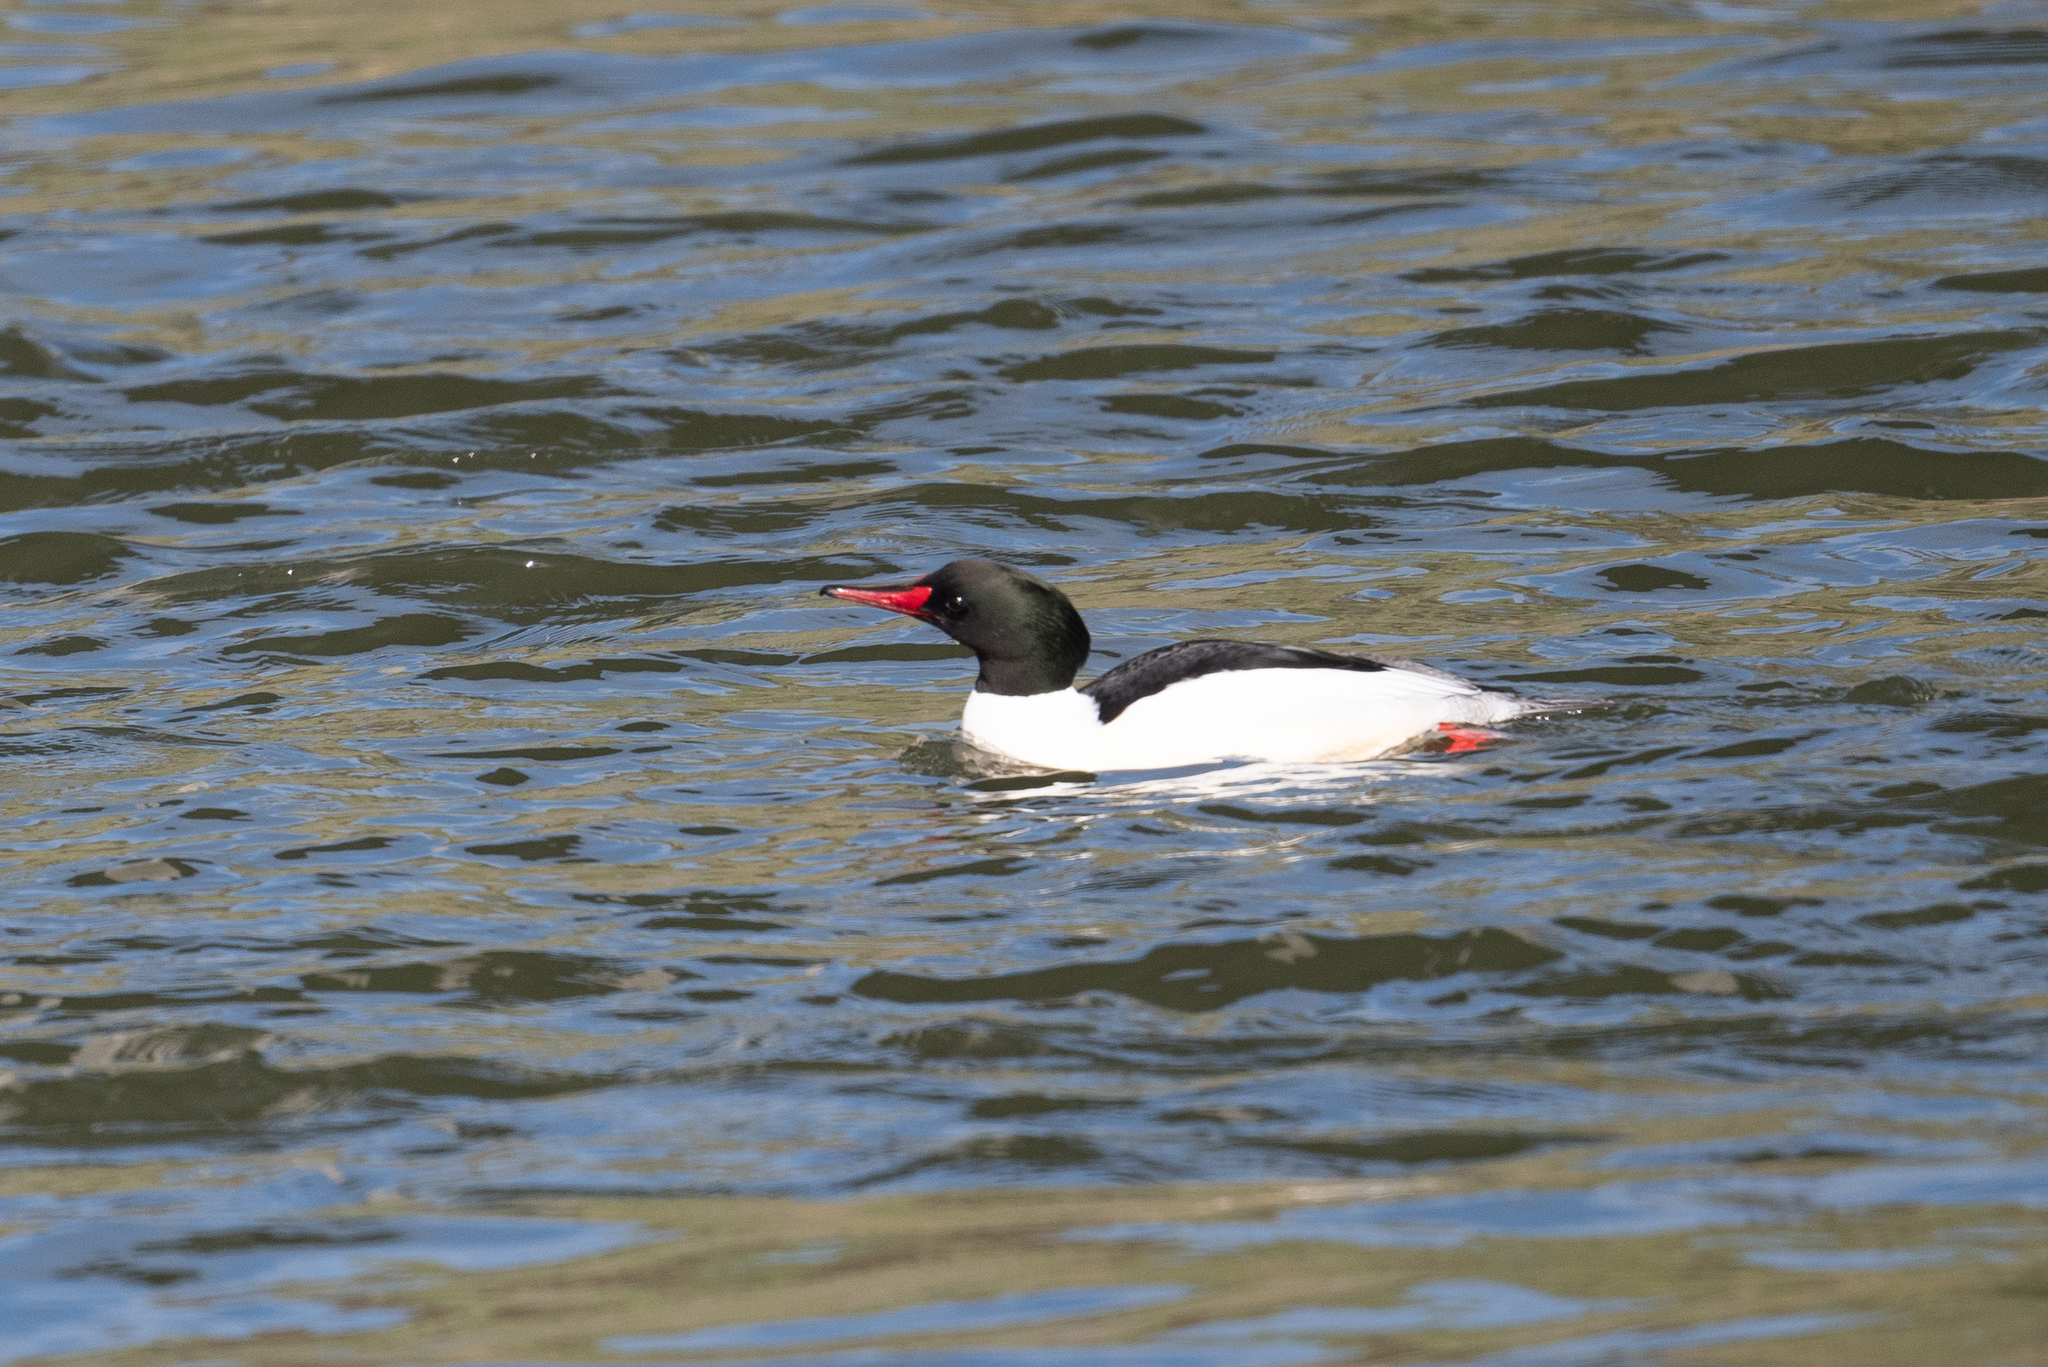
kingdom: Animalia
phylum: Chordata
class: Aves
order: Anseriformes
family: Anatidae
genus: Mergus
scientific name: Mergus merganser
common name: Common merganser
